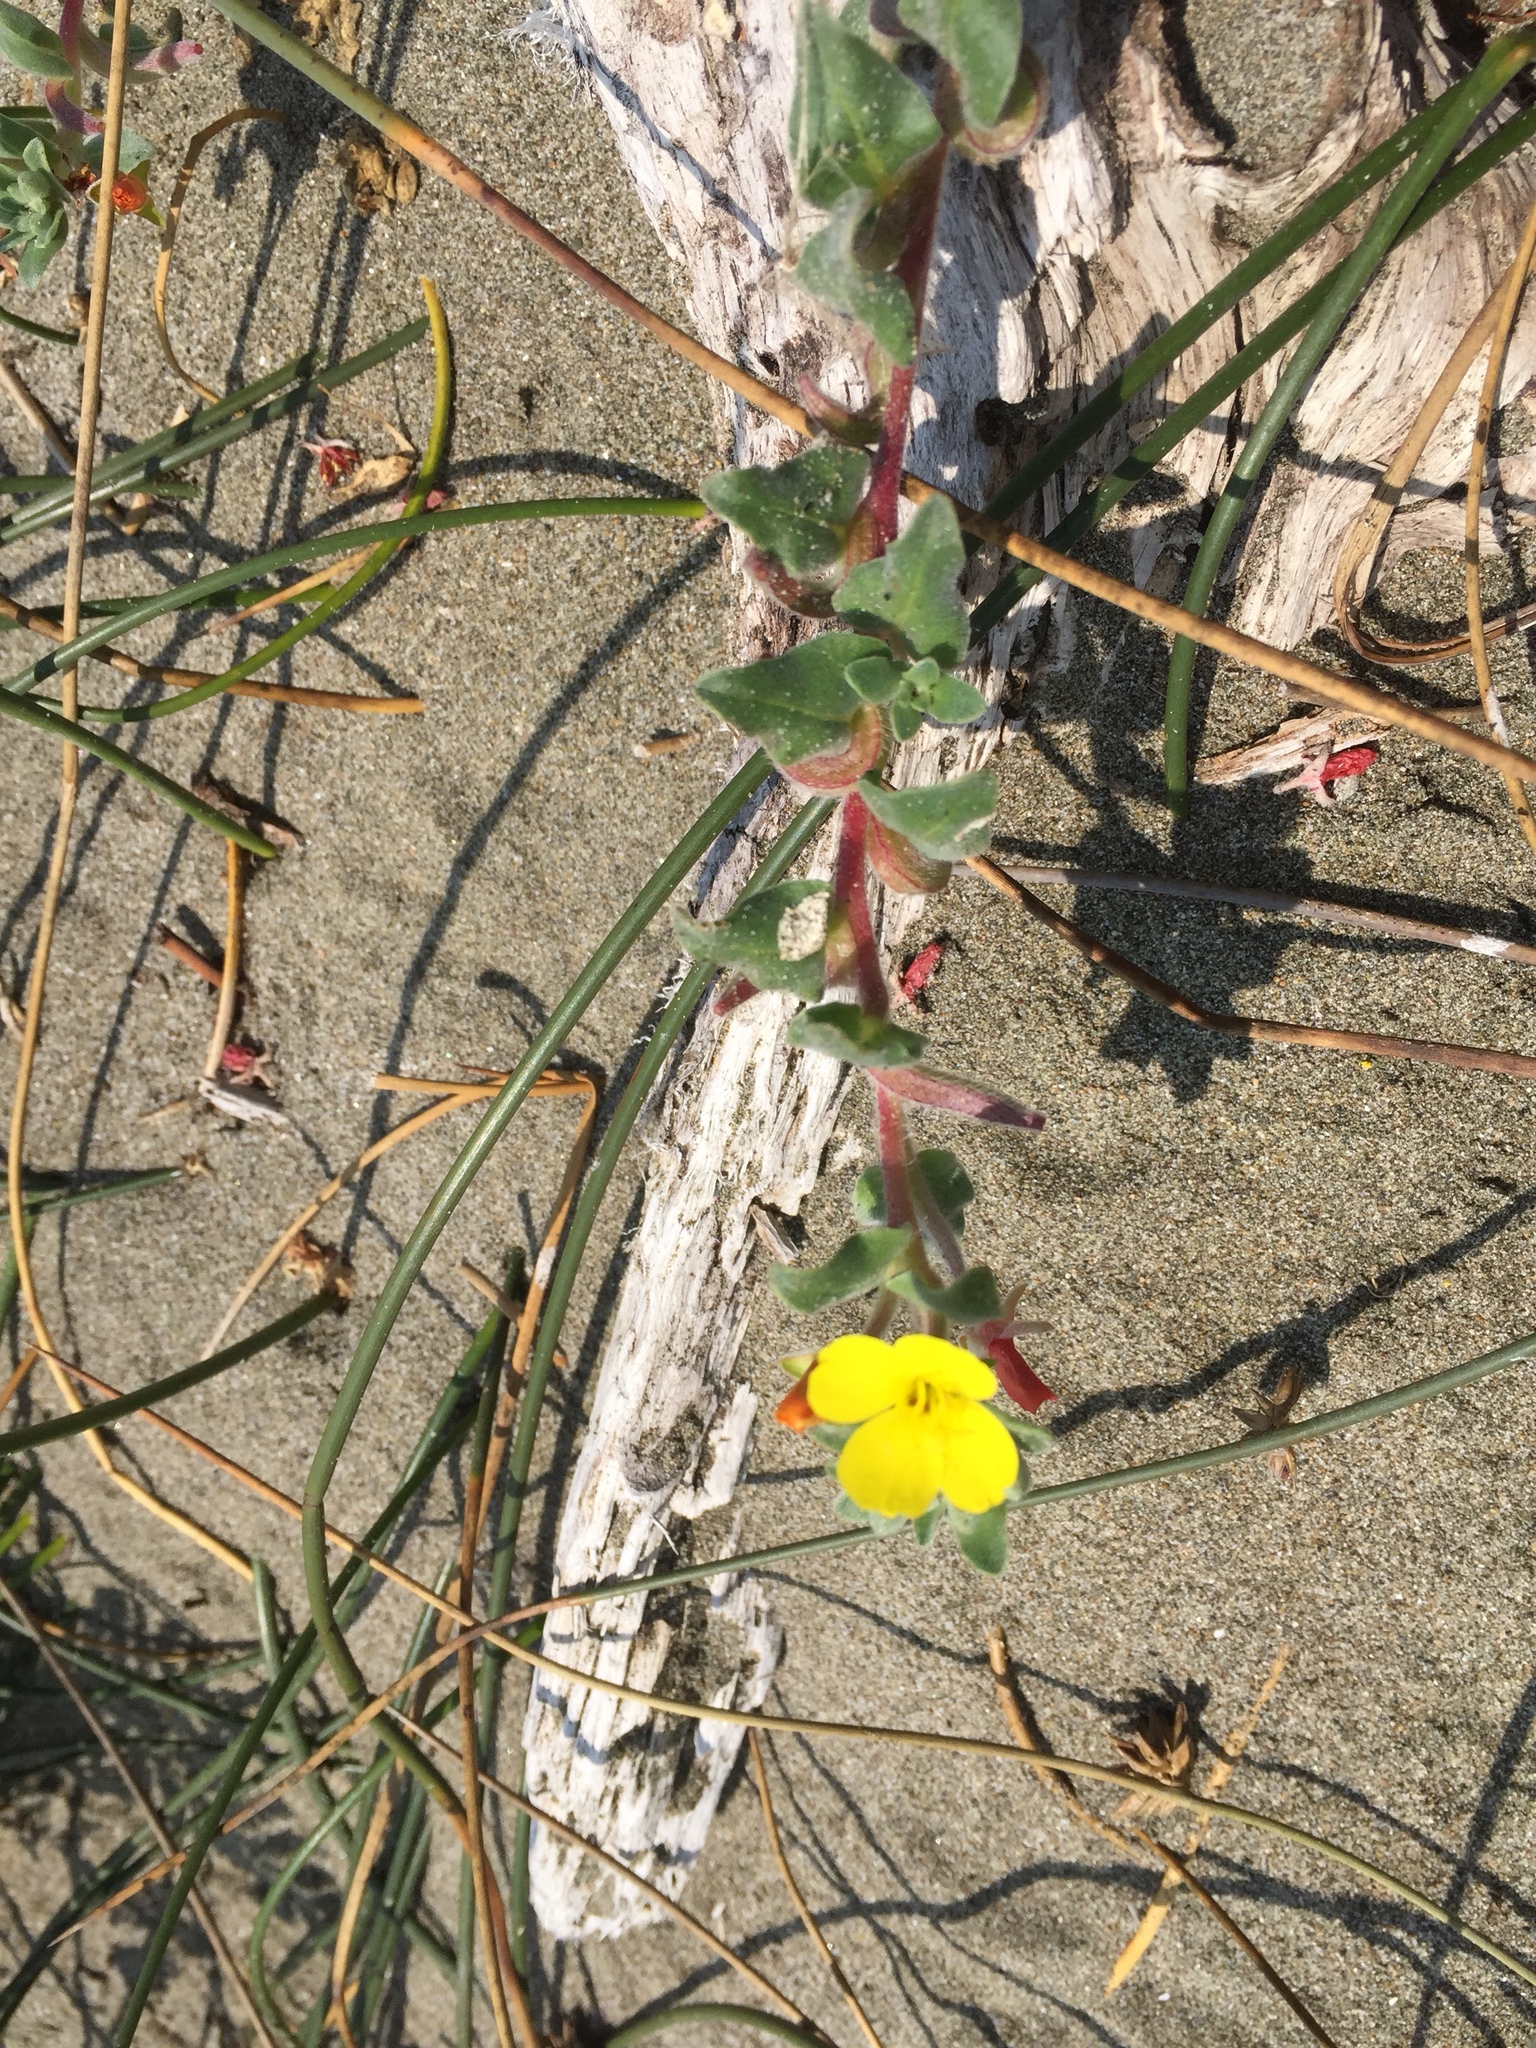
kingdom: Plantae
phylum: Tracheophyta
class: Magnoliopsida
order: Myrtales
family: Onagraceae
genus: Camissoniopsis
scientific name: Camissoniopsis cheiranthifolia
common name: Beach suncup
